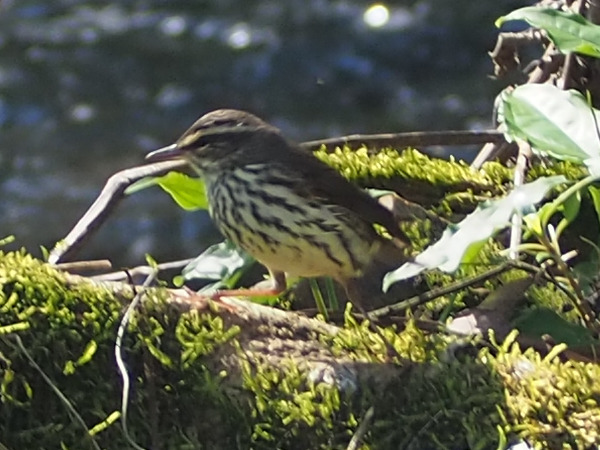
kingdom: Animalia
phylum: Chordata
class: Aves
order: Passeriformes
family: Parulidae
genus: Parkesia
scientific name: Parkesia noveboracensis
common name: Northern waterthrush
